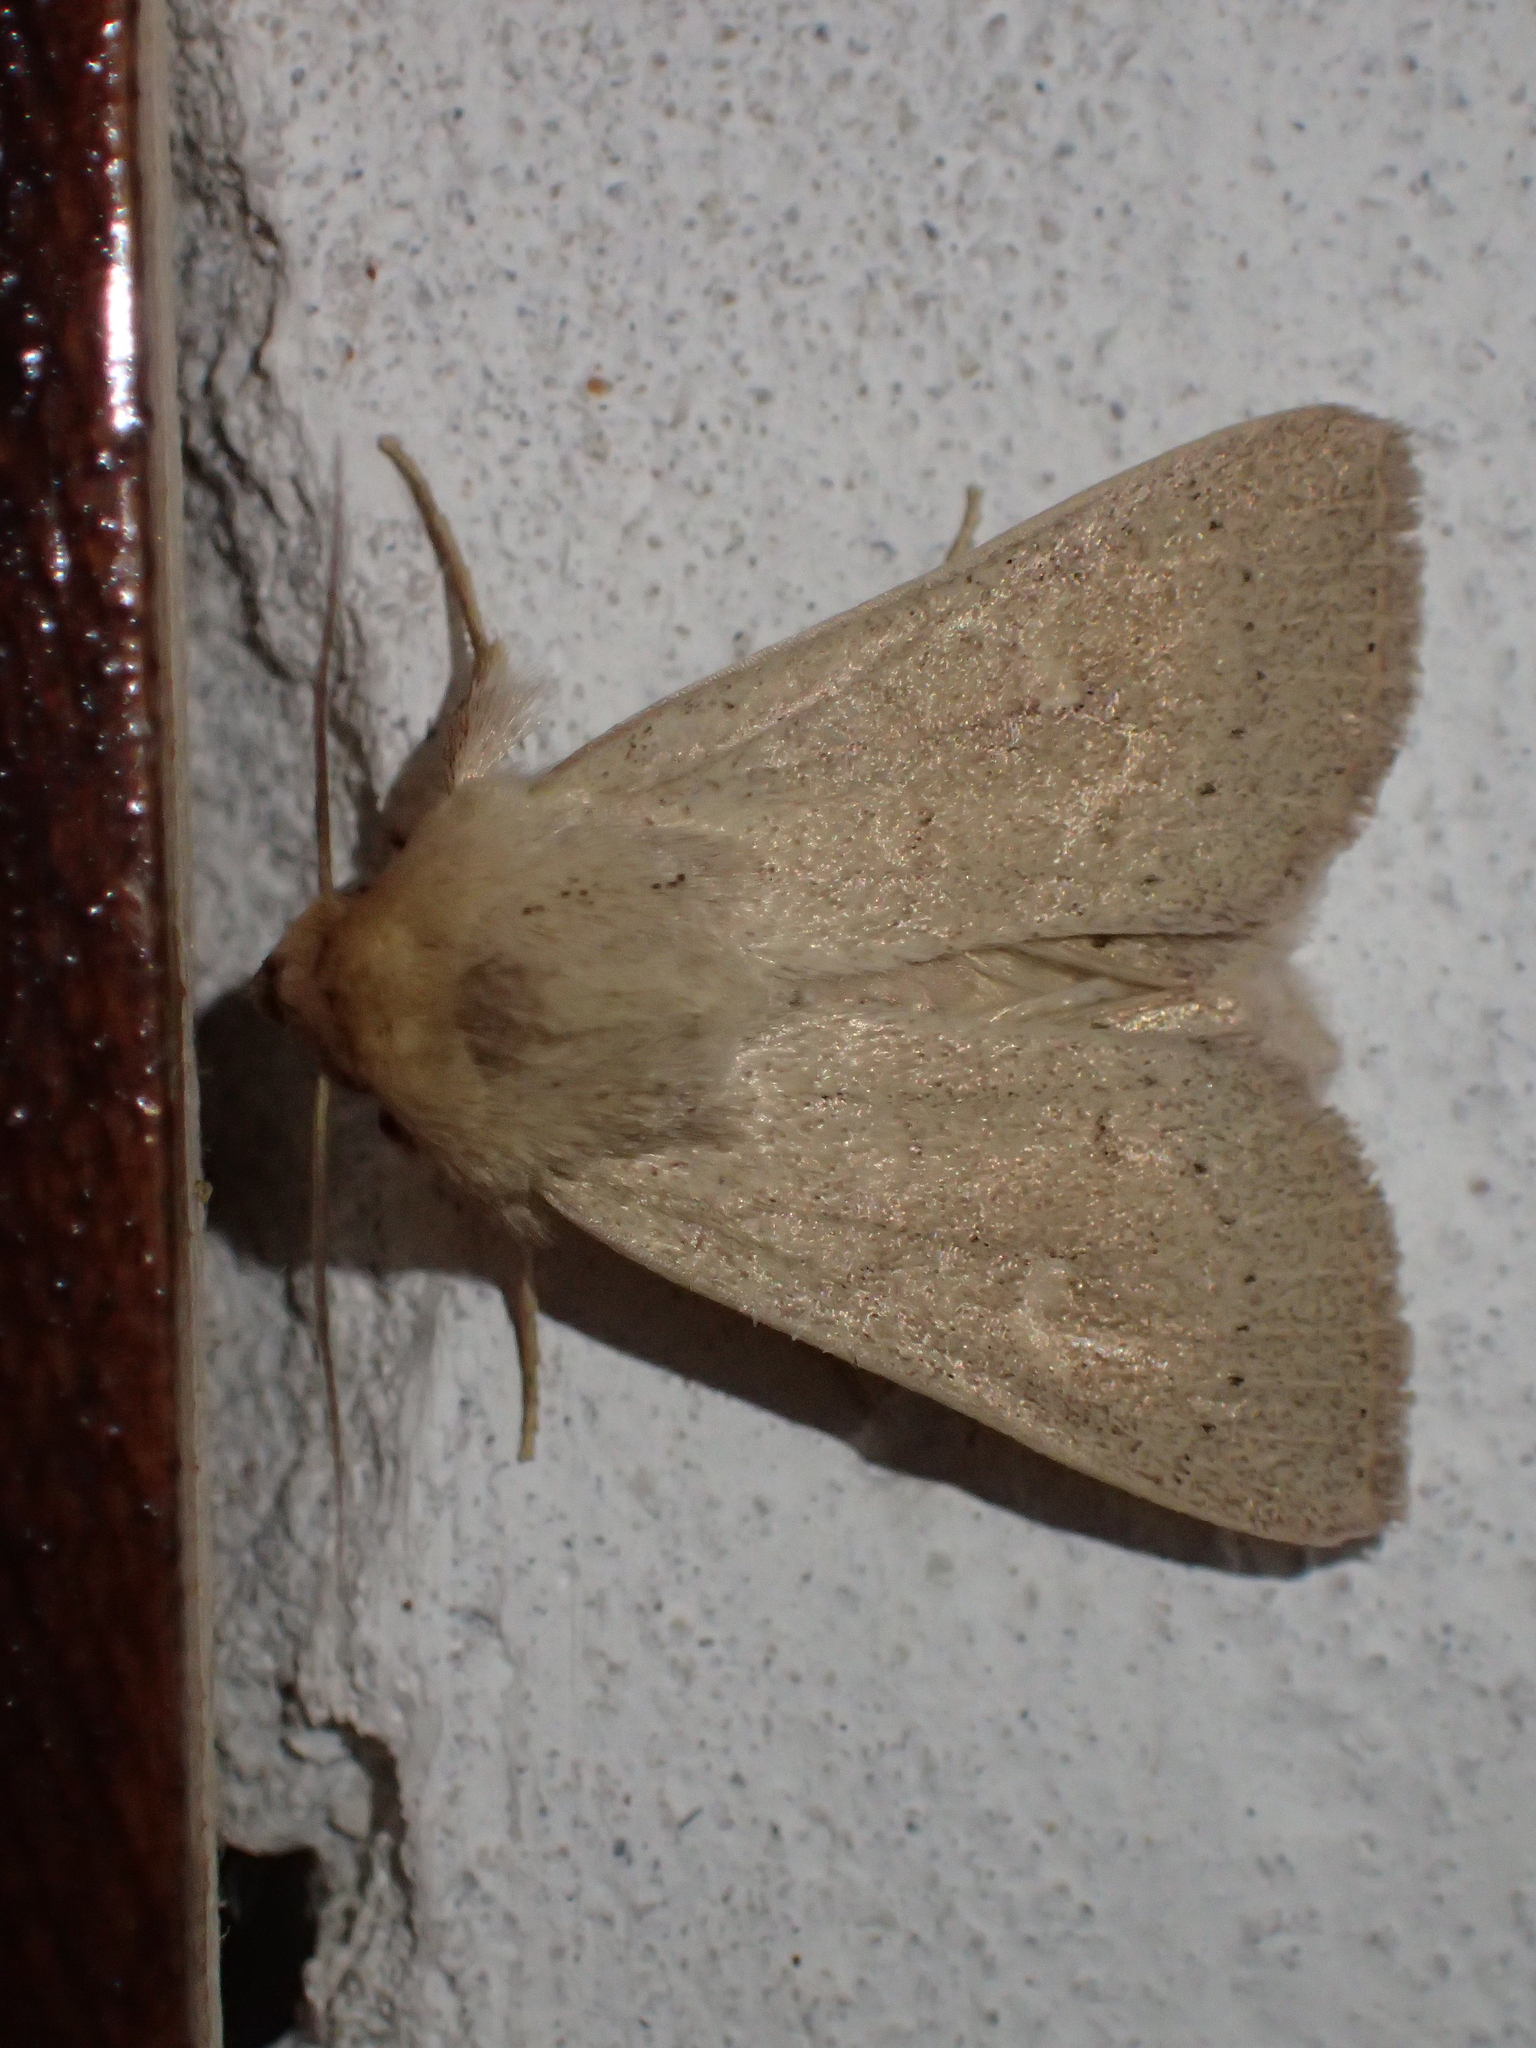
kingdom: Animalia
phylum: Arthropoda
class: Insecta
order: Lepidoptera
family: Noctuidae
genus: Mythimna
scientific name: Mythimna ferrago
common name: Clay
